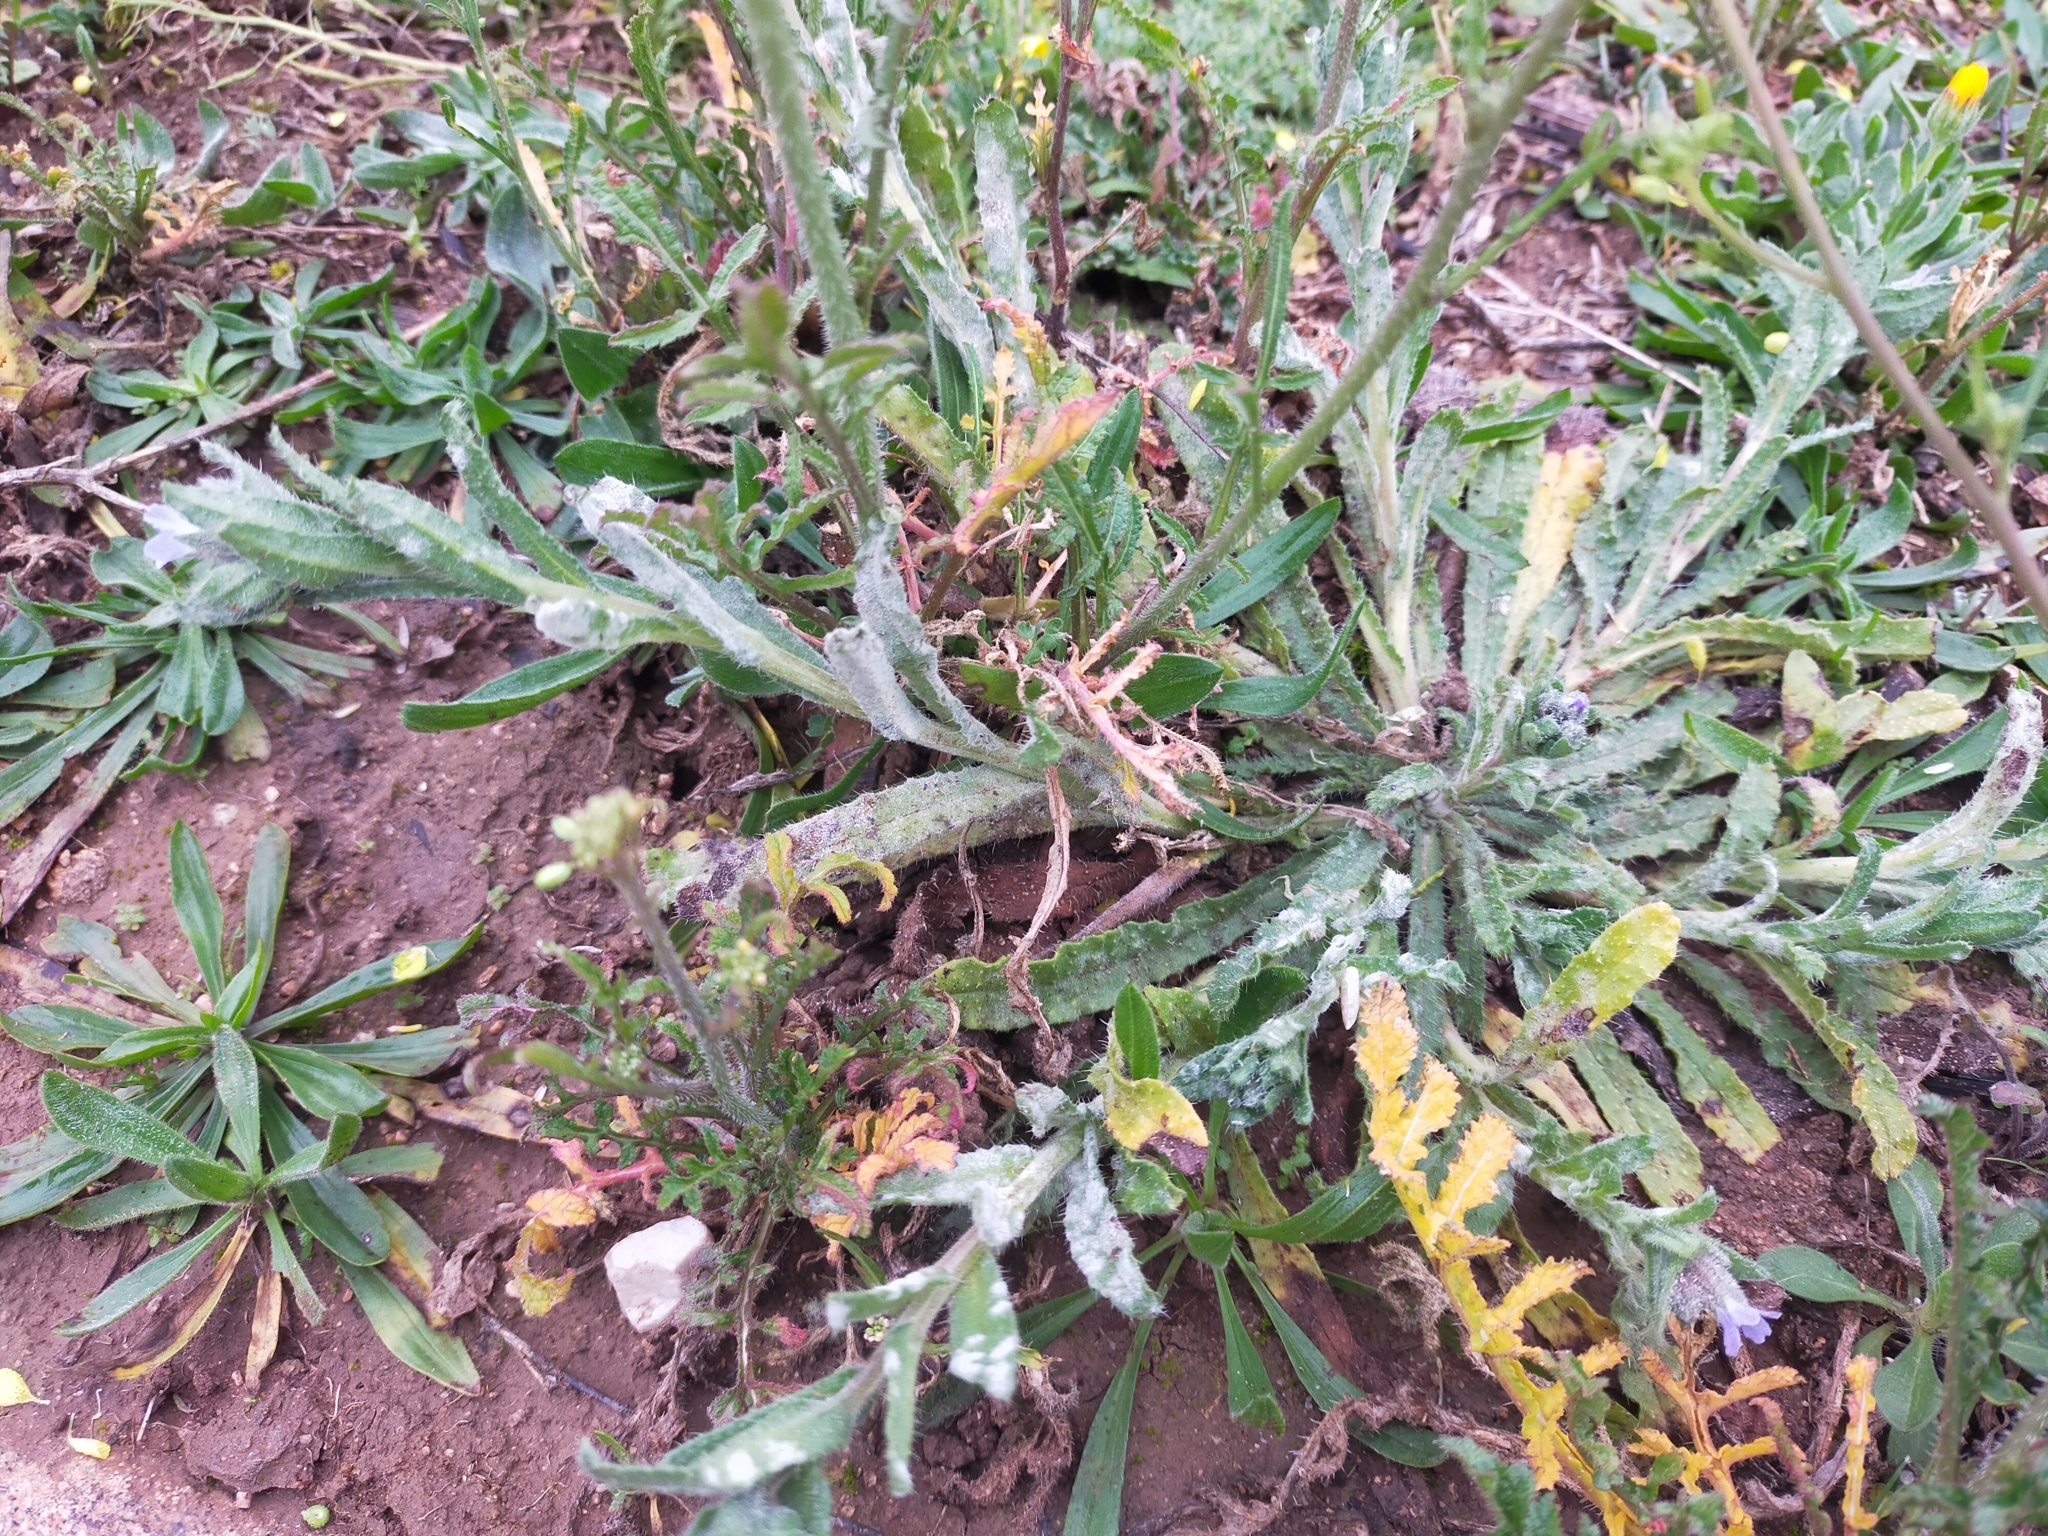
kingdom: Plantae
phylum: Tracheophyta
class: Magnoliopsida
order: Boraginales
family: Boraginaceae
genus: Nonea
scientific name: Nonea micrantha
